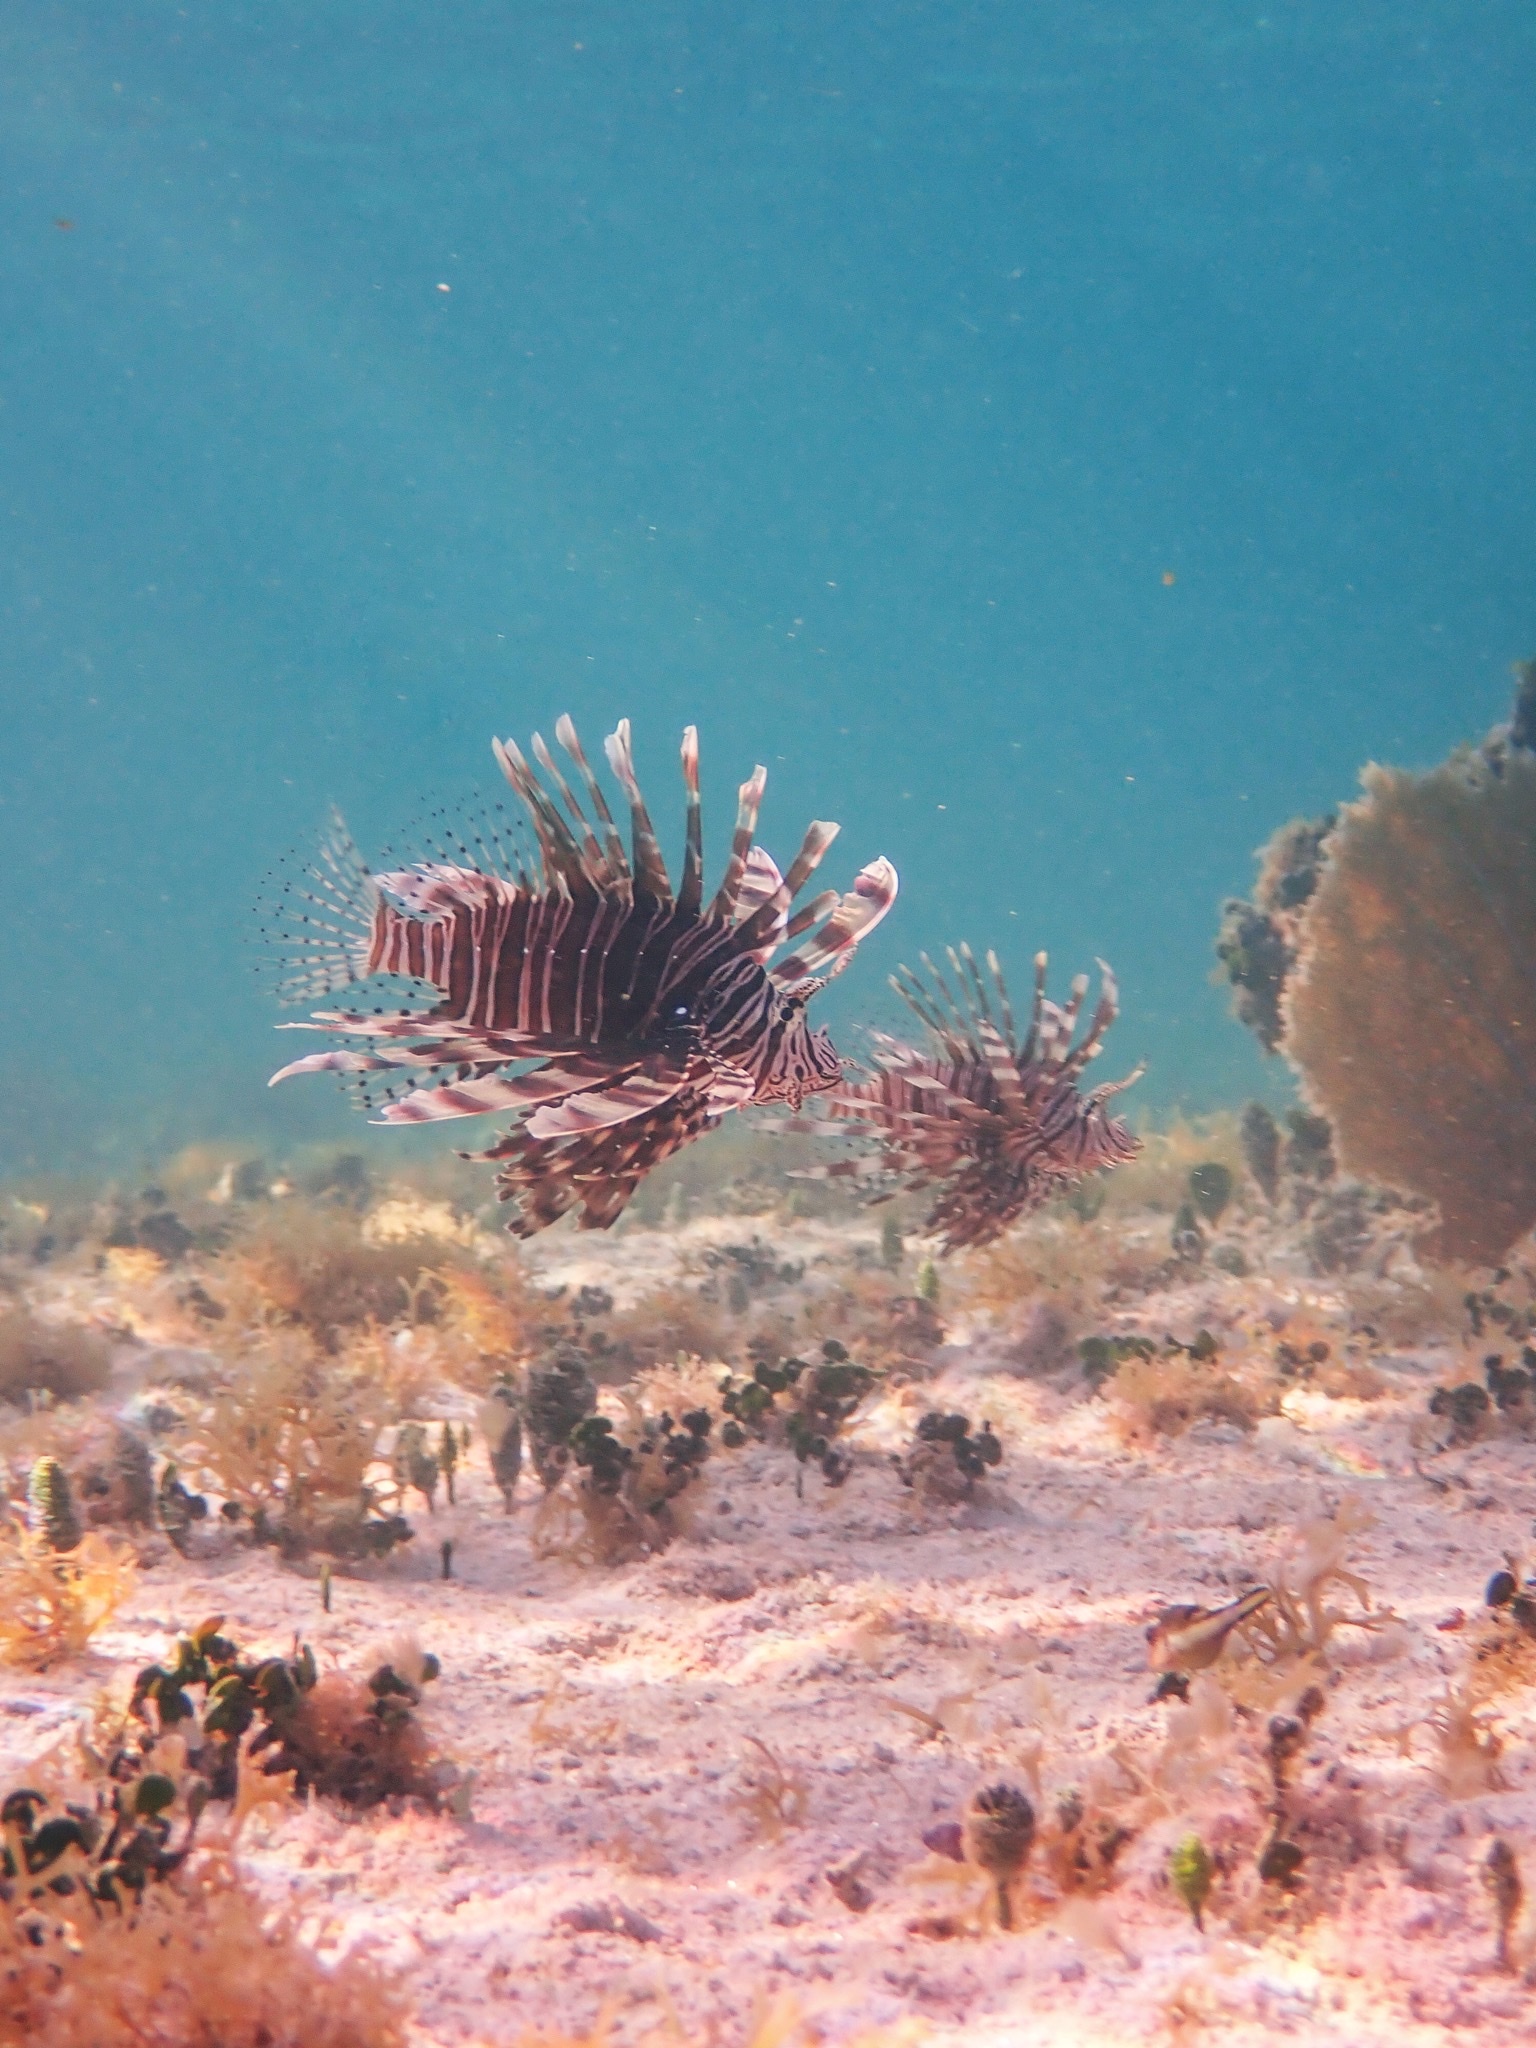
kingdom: Animalia
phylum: Chordata
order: Scorpaeniformes
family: Scorpaenidae
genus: Pterois
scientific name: Pterois volitans
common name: Lionfish
